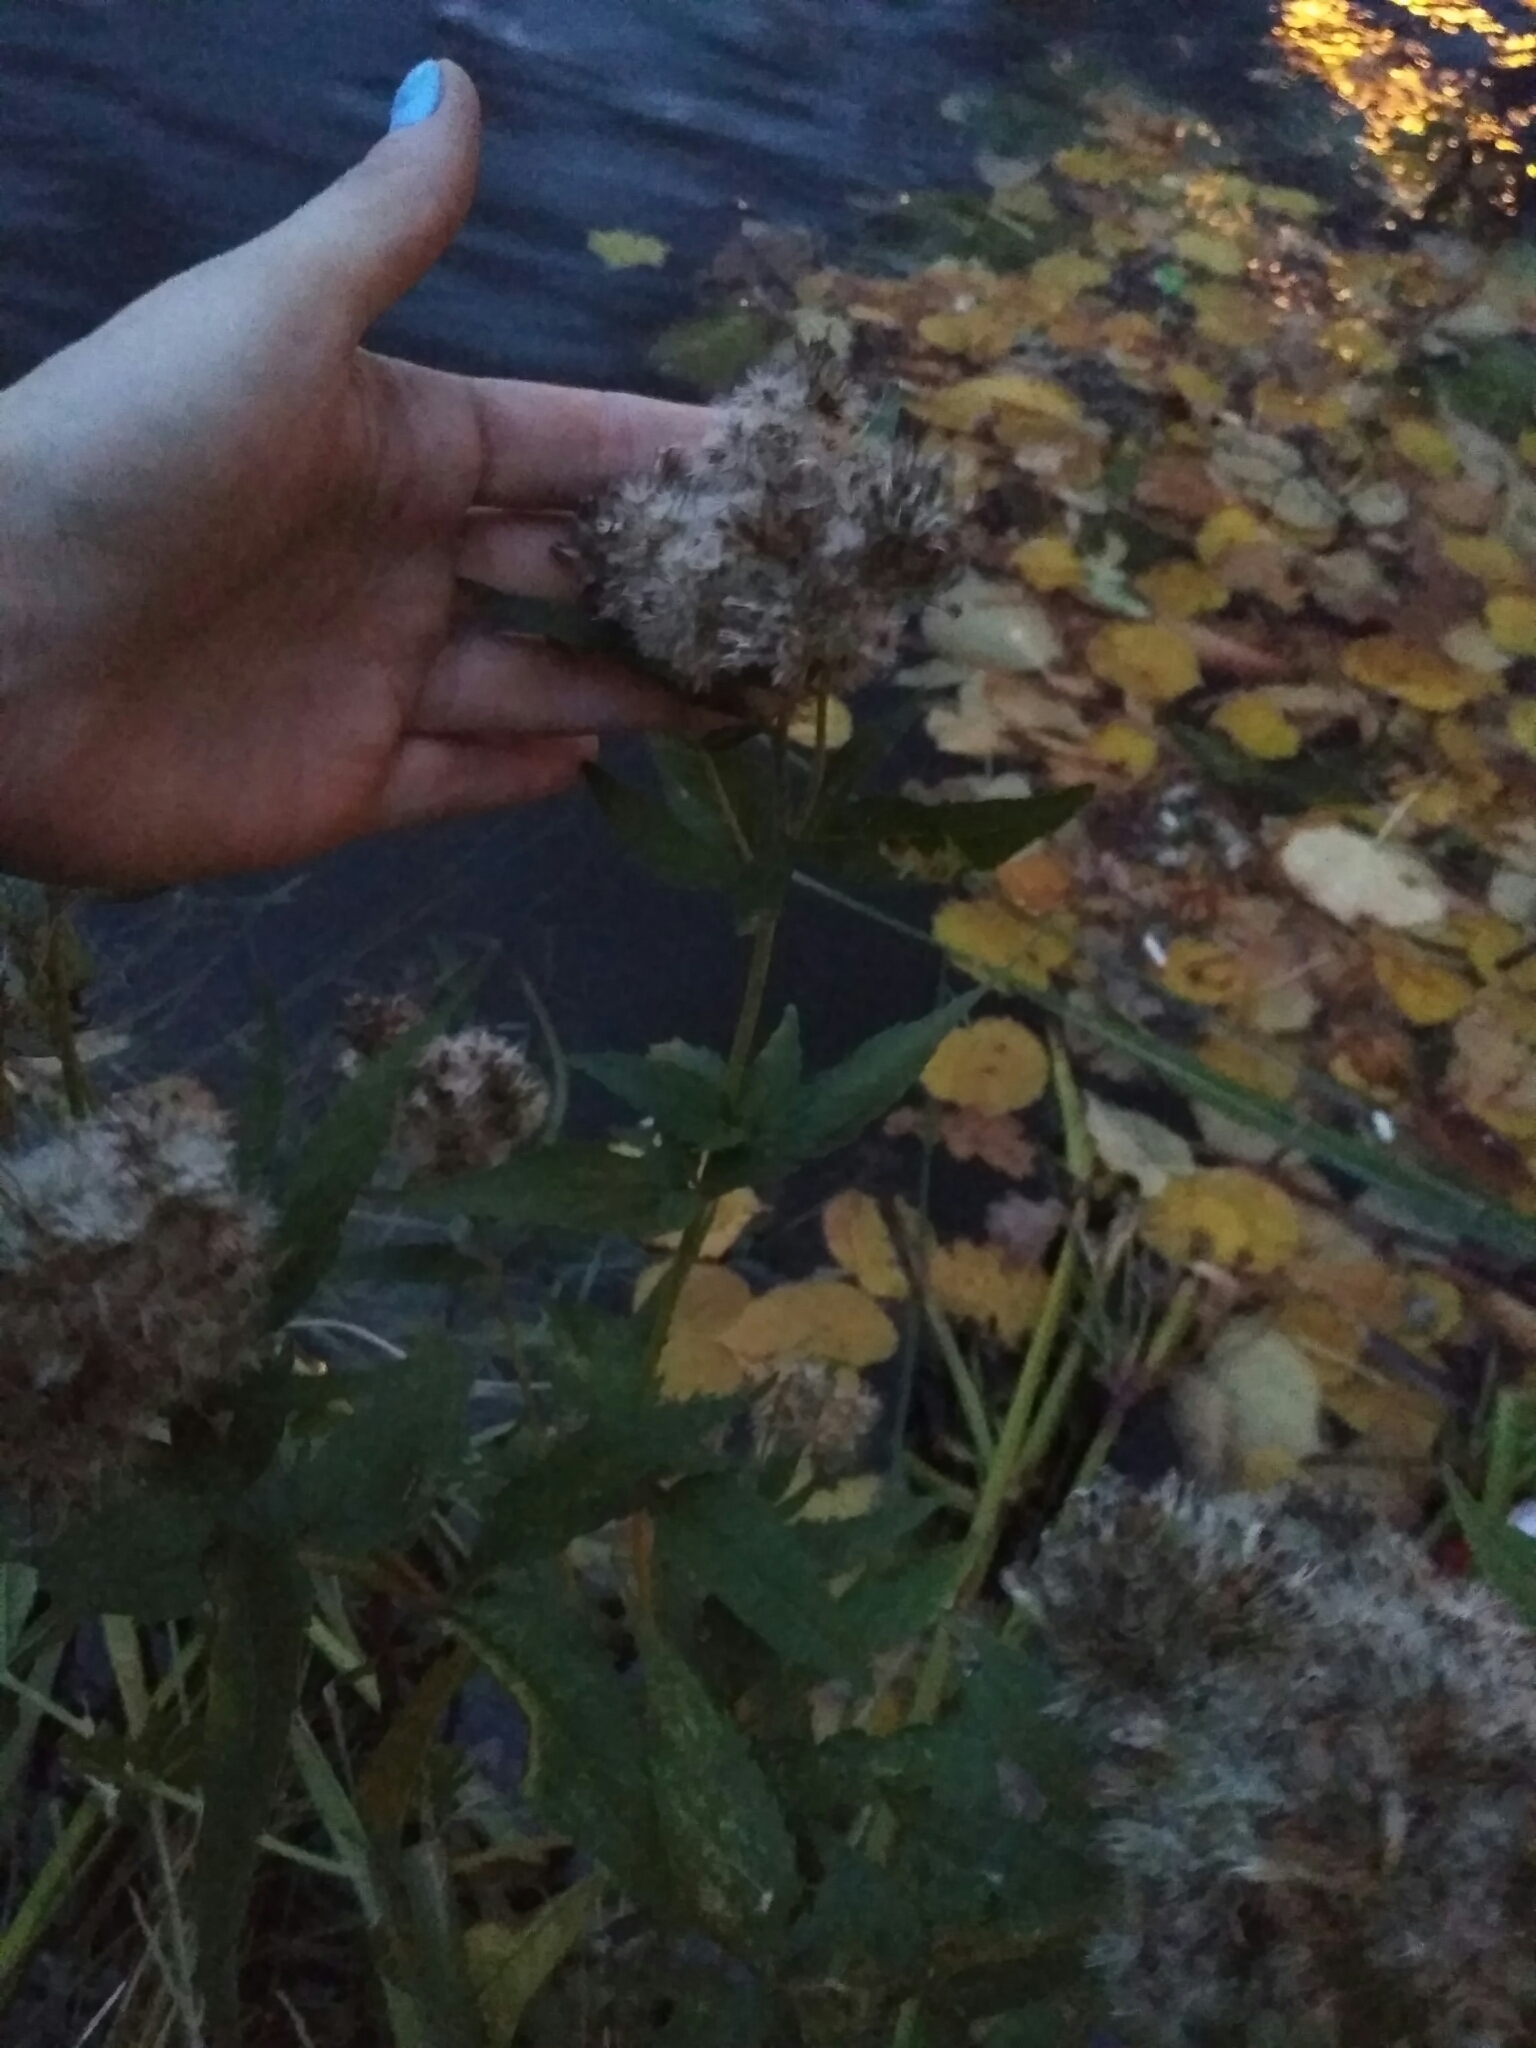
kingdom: Plantae
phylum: Tracheophyta
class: Magnoliopsida
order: Asterales
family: Asteraceae
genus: Eupatorium
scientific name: Eupatorium cannabinum
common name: Hemp-agrimony
